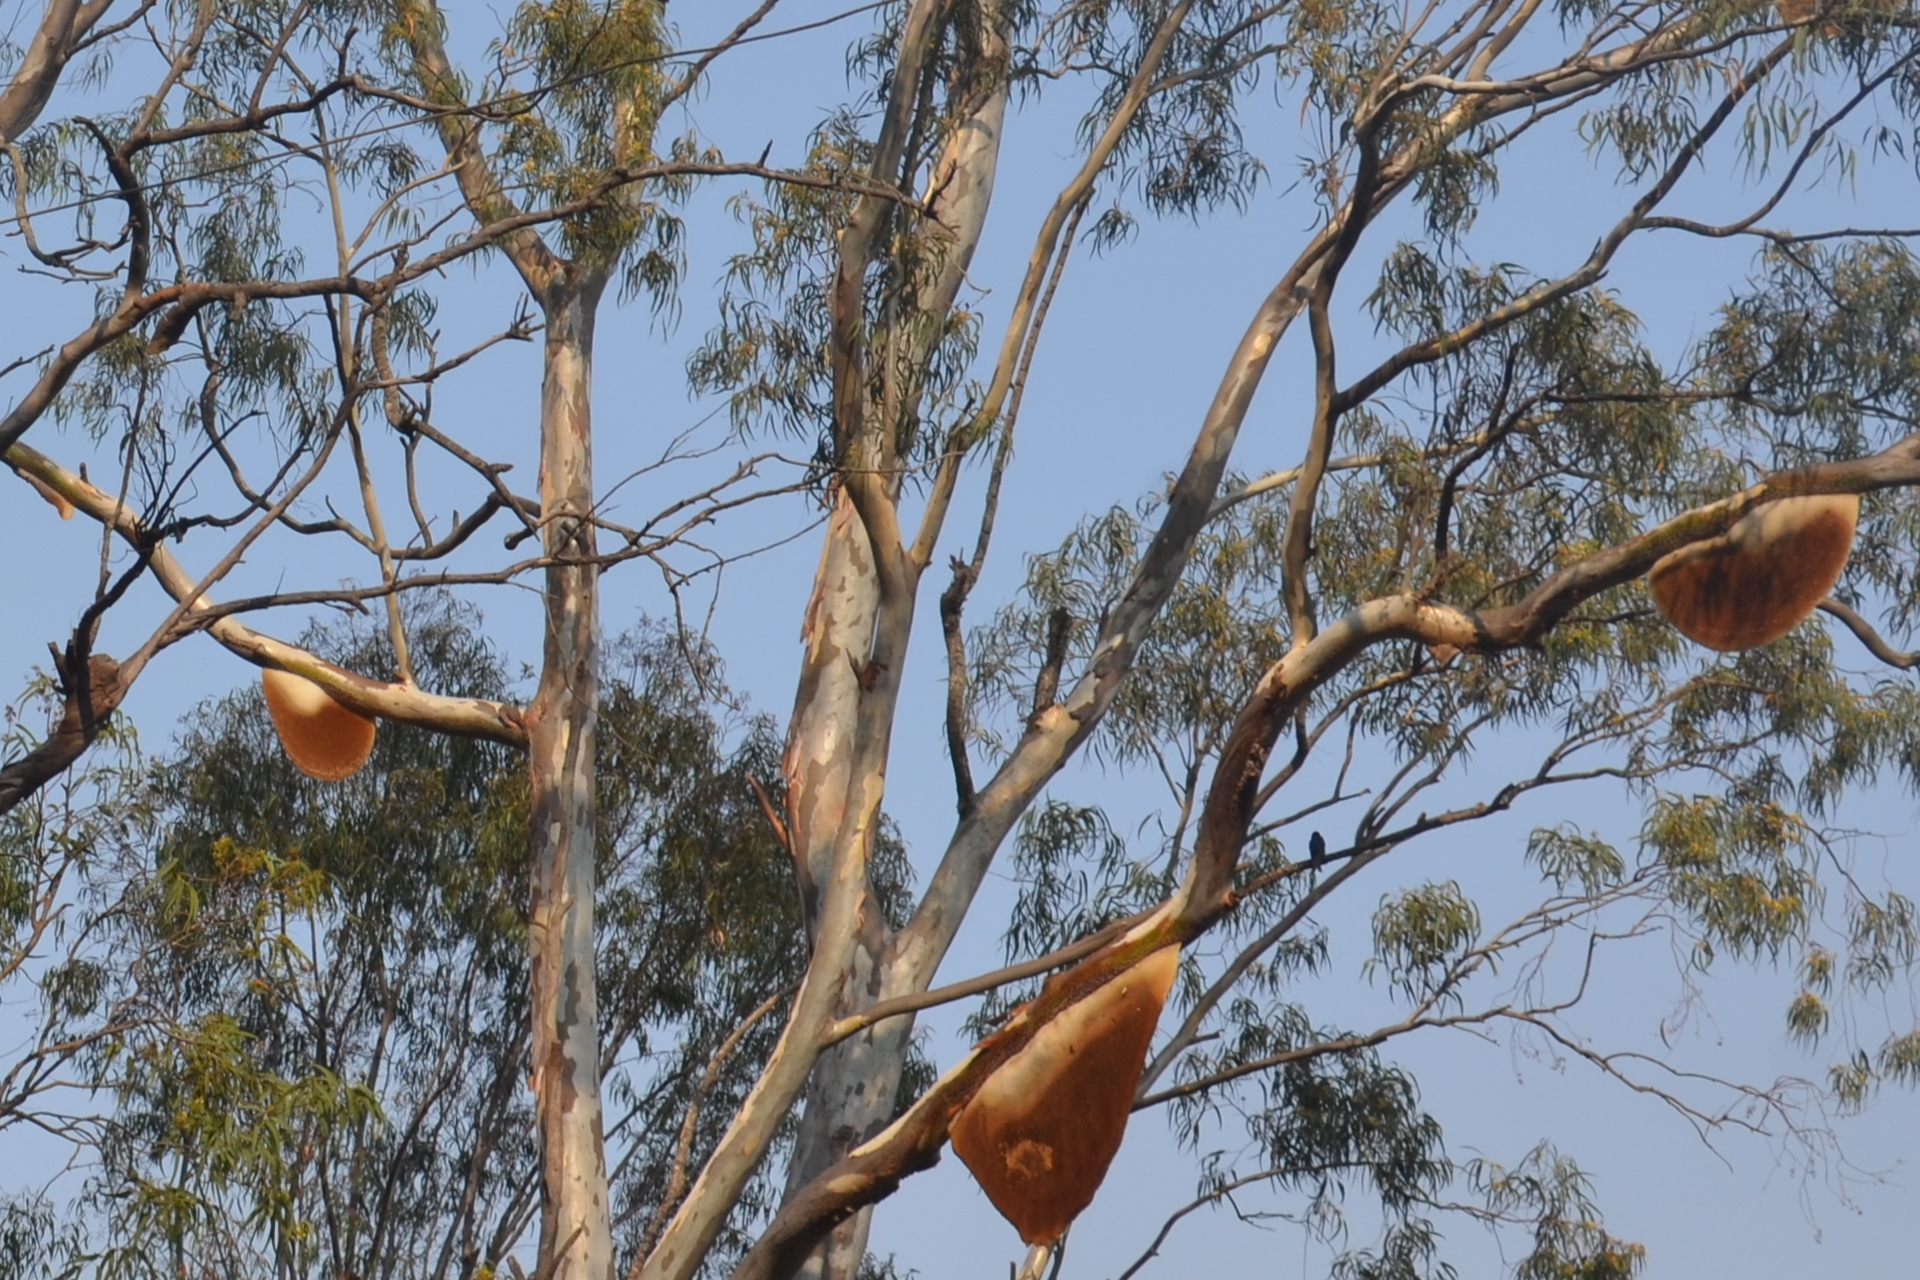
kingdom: Animalia
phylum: Arthropoda
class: Insecta
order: Hymenoptera
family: Apidae
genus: Apis
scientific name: Apis dorsata
